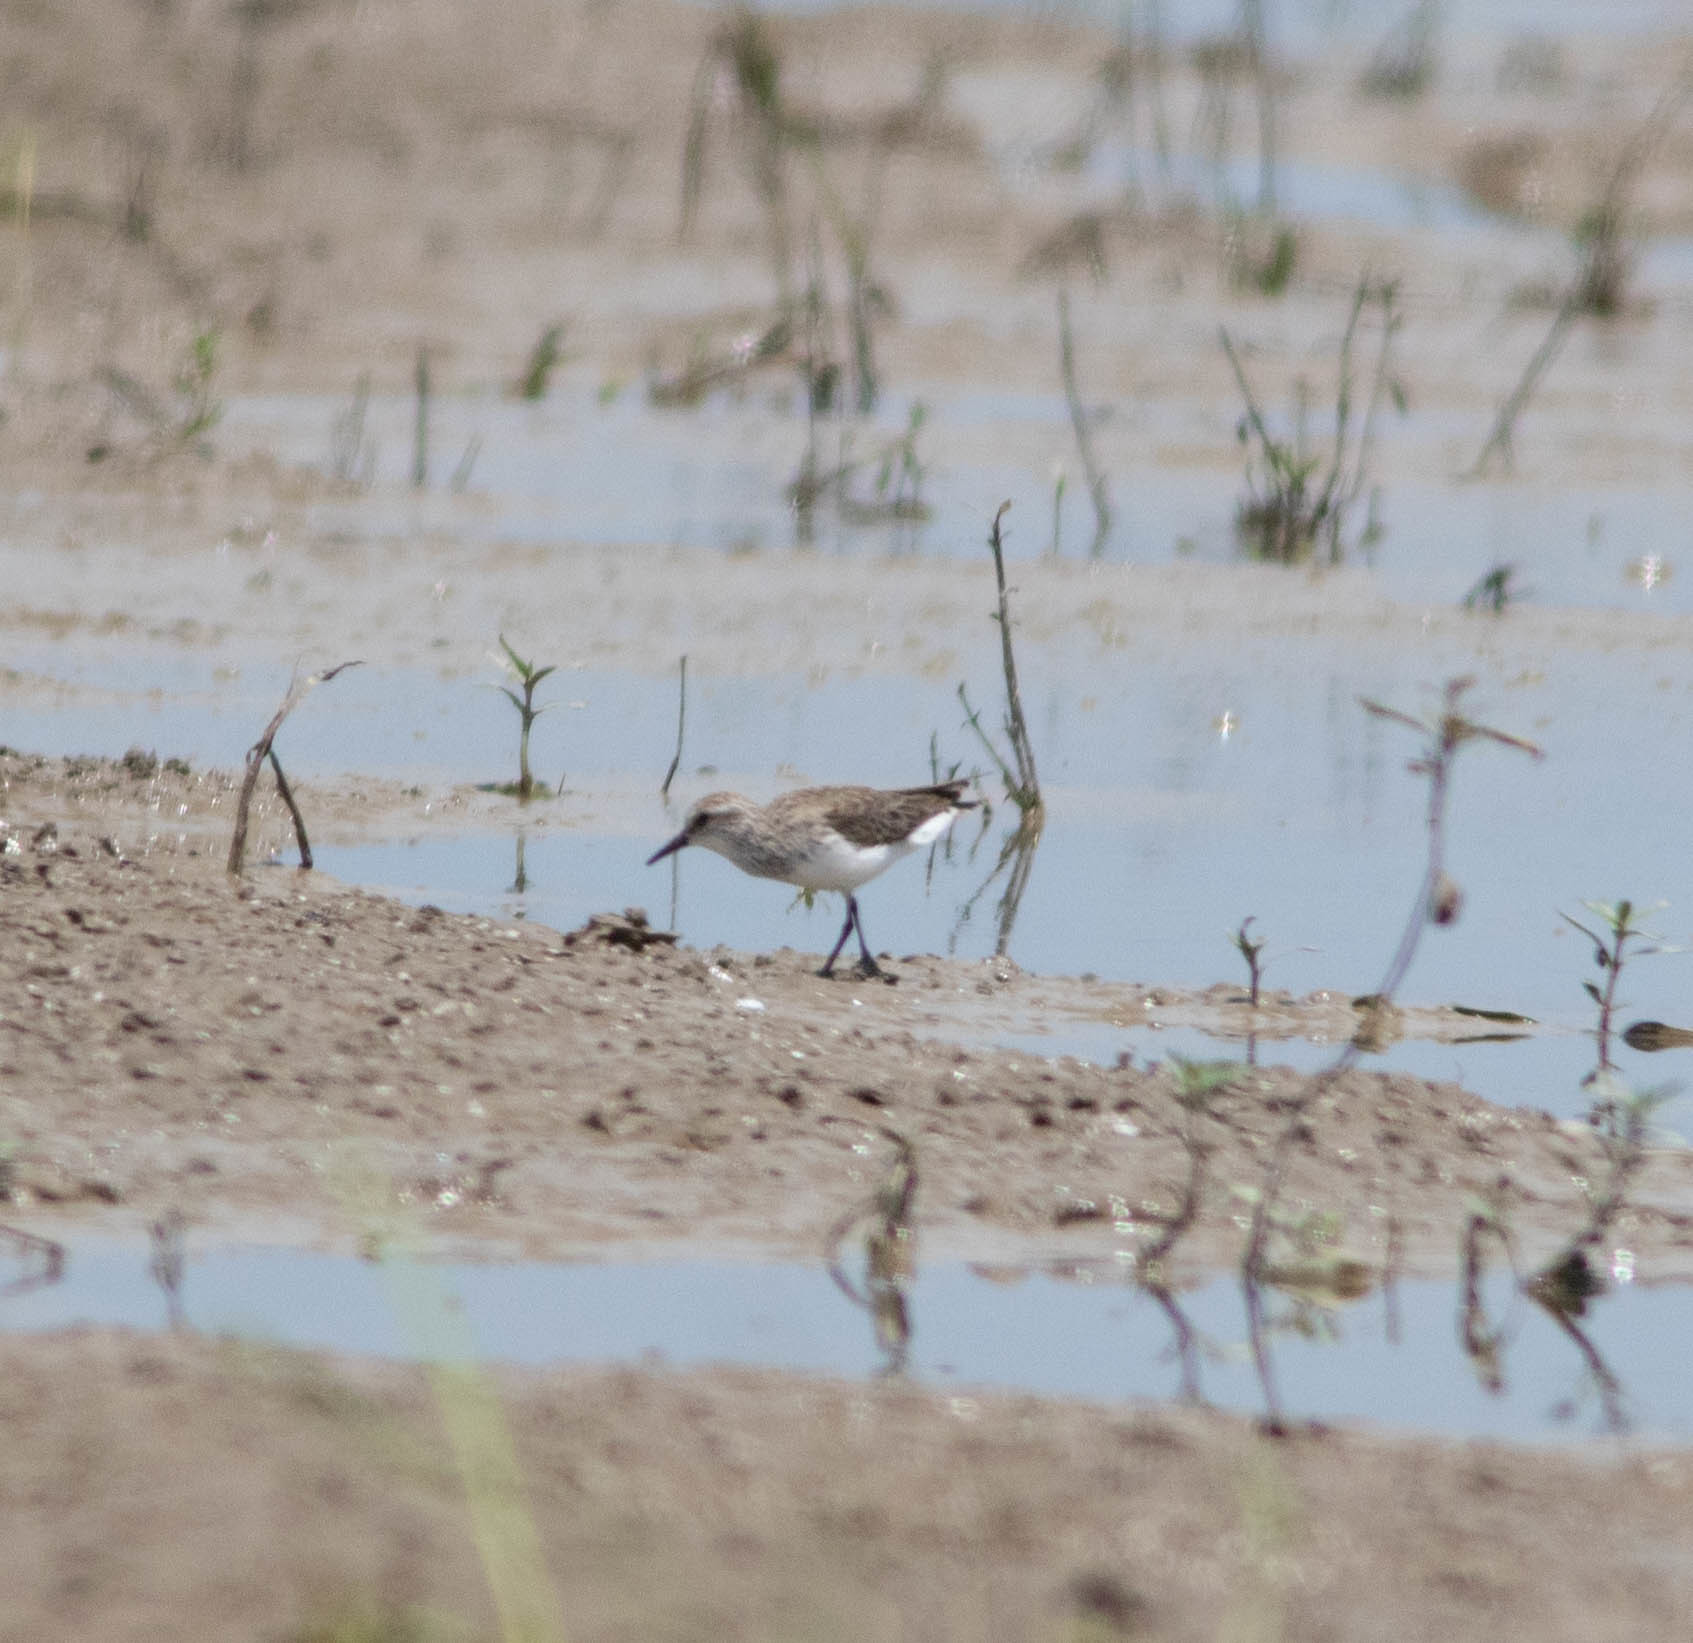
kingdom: Animalia
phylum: Chordata
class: Aves
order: Charadriiformes
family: Scolopacidae
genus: Calidris
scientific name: Calidris pusilla
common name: Semipalmated sandpiper
